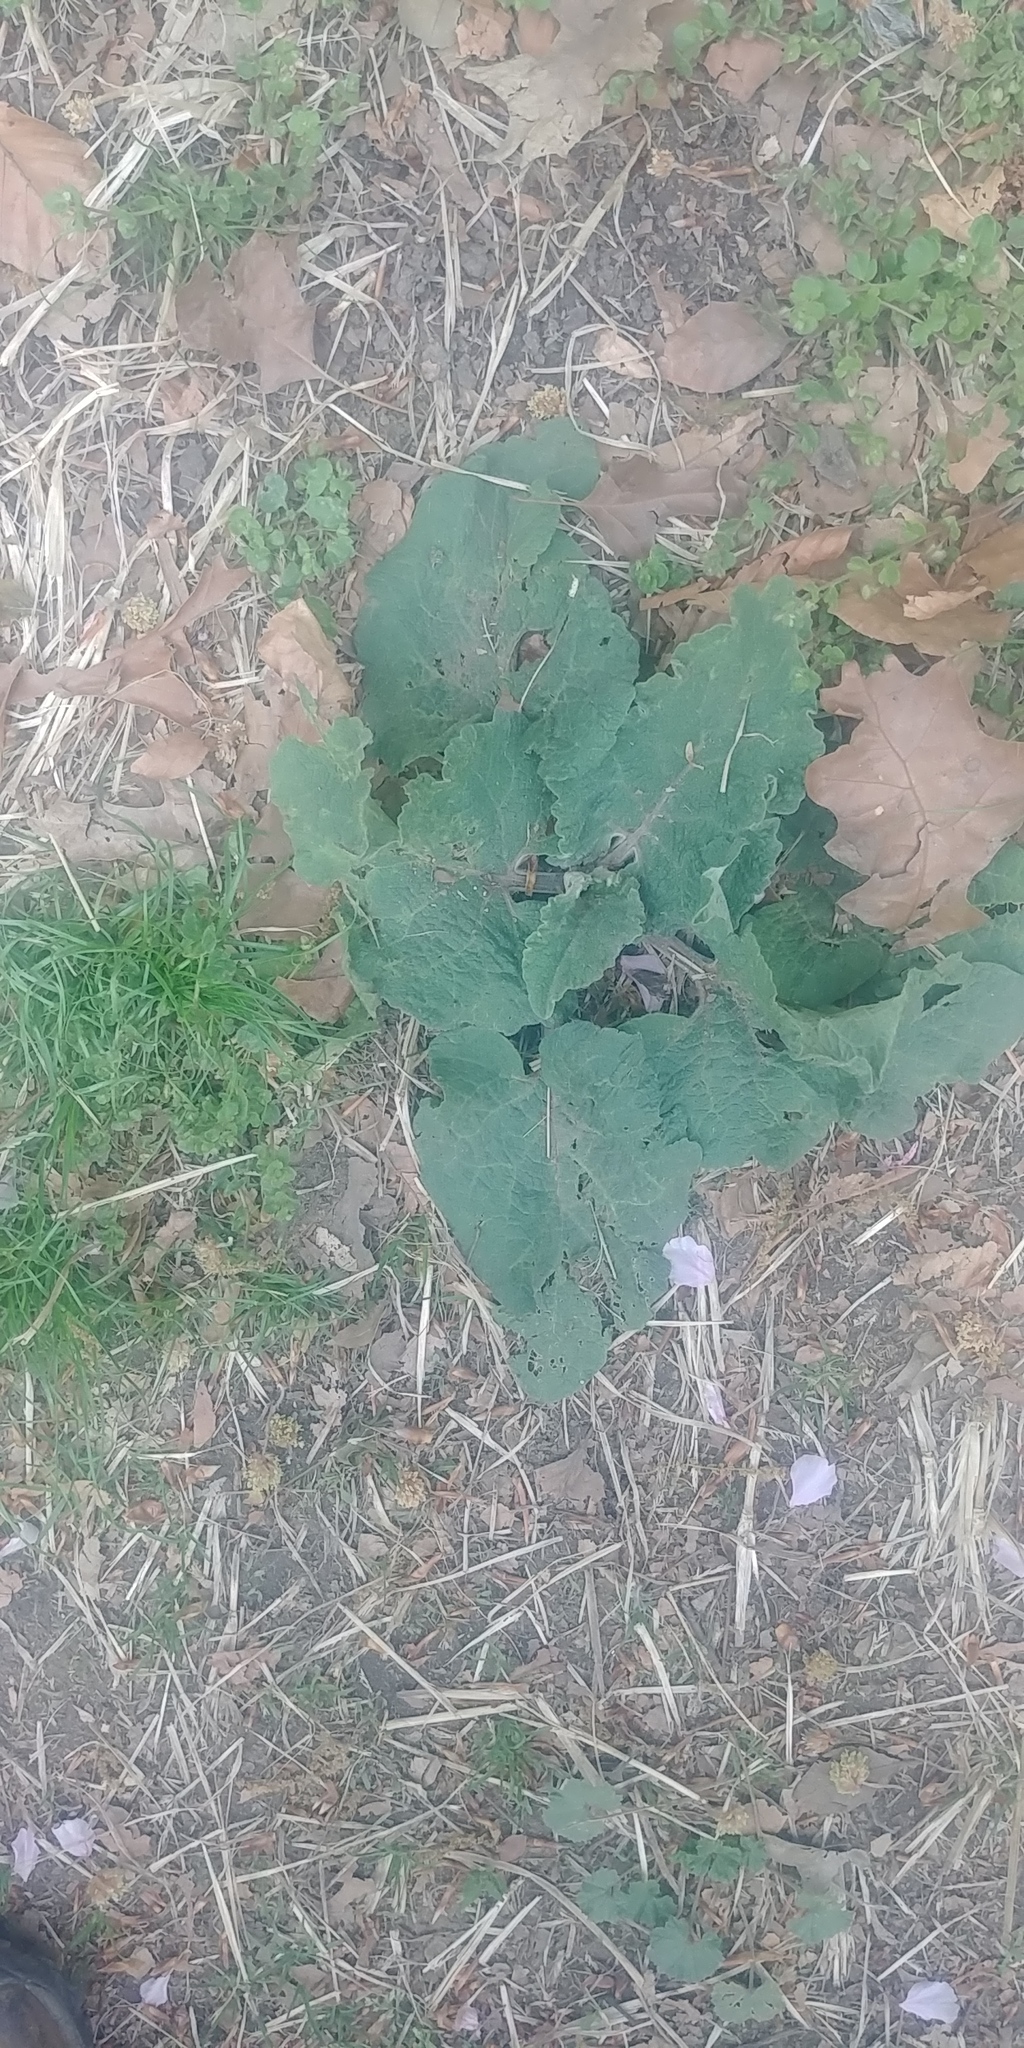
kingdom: Plantae
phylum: Tracheophyta
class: Magnoliopsida
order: Asterales
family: Asteraceae
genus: Arctium
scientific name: Arctium
